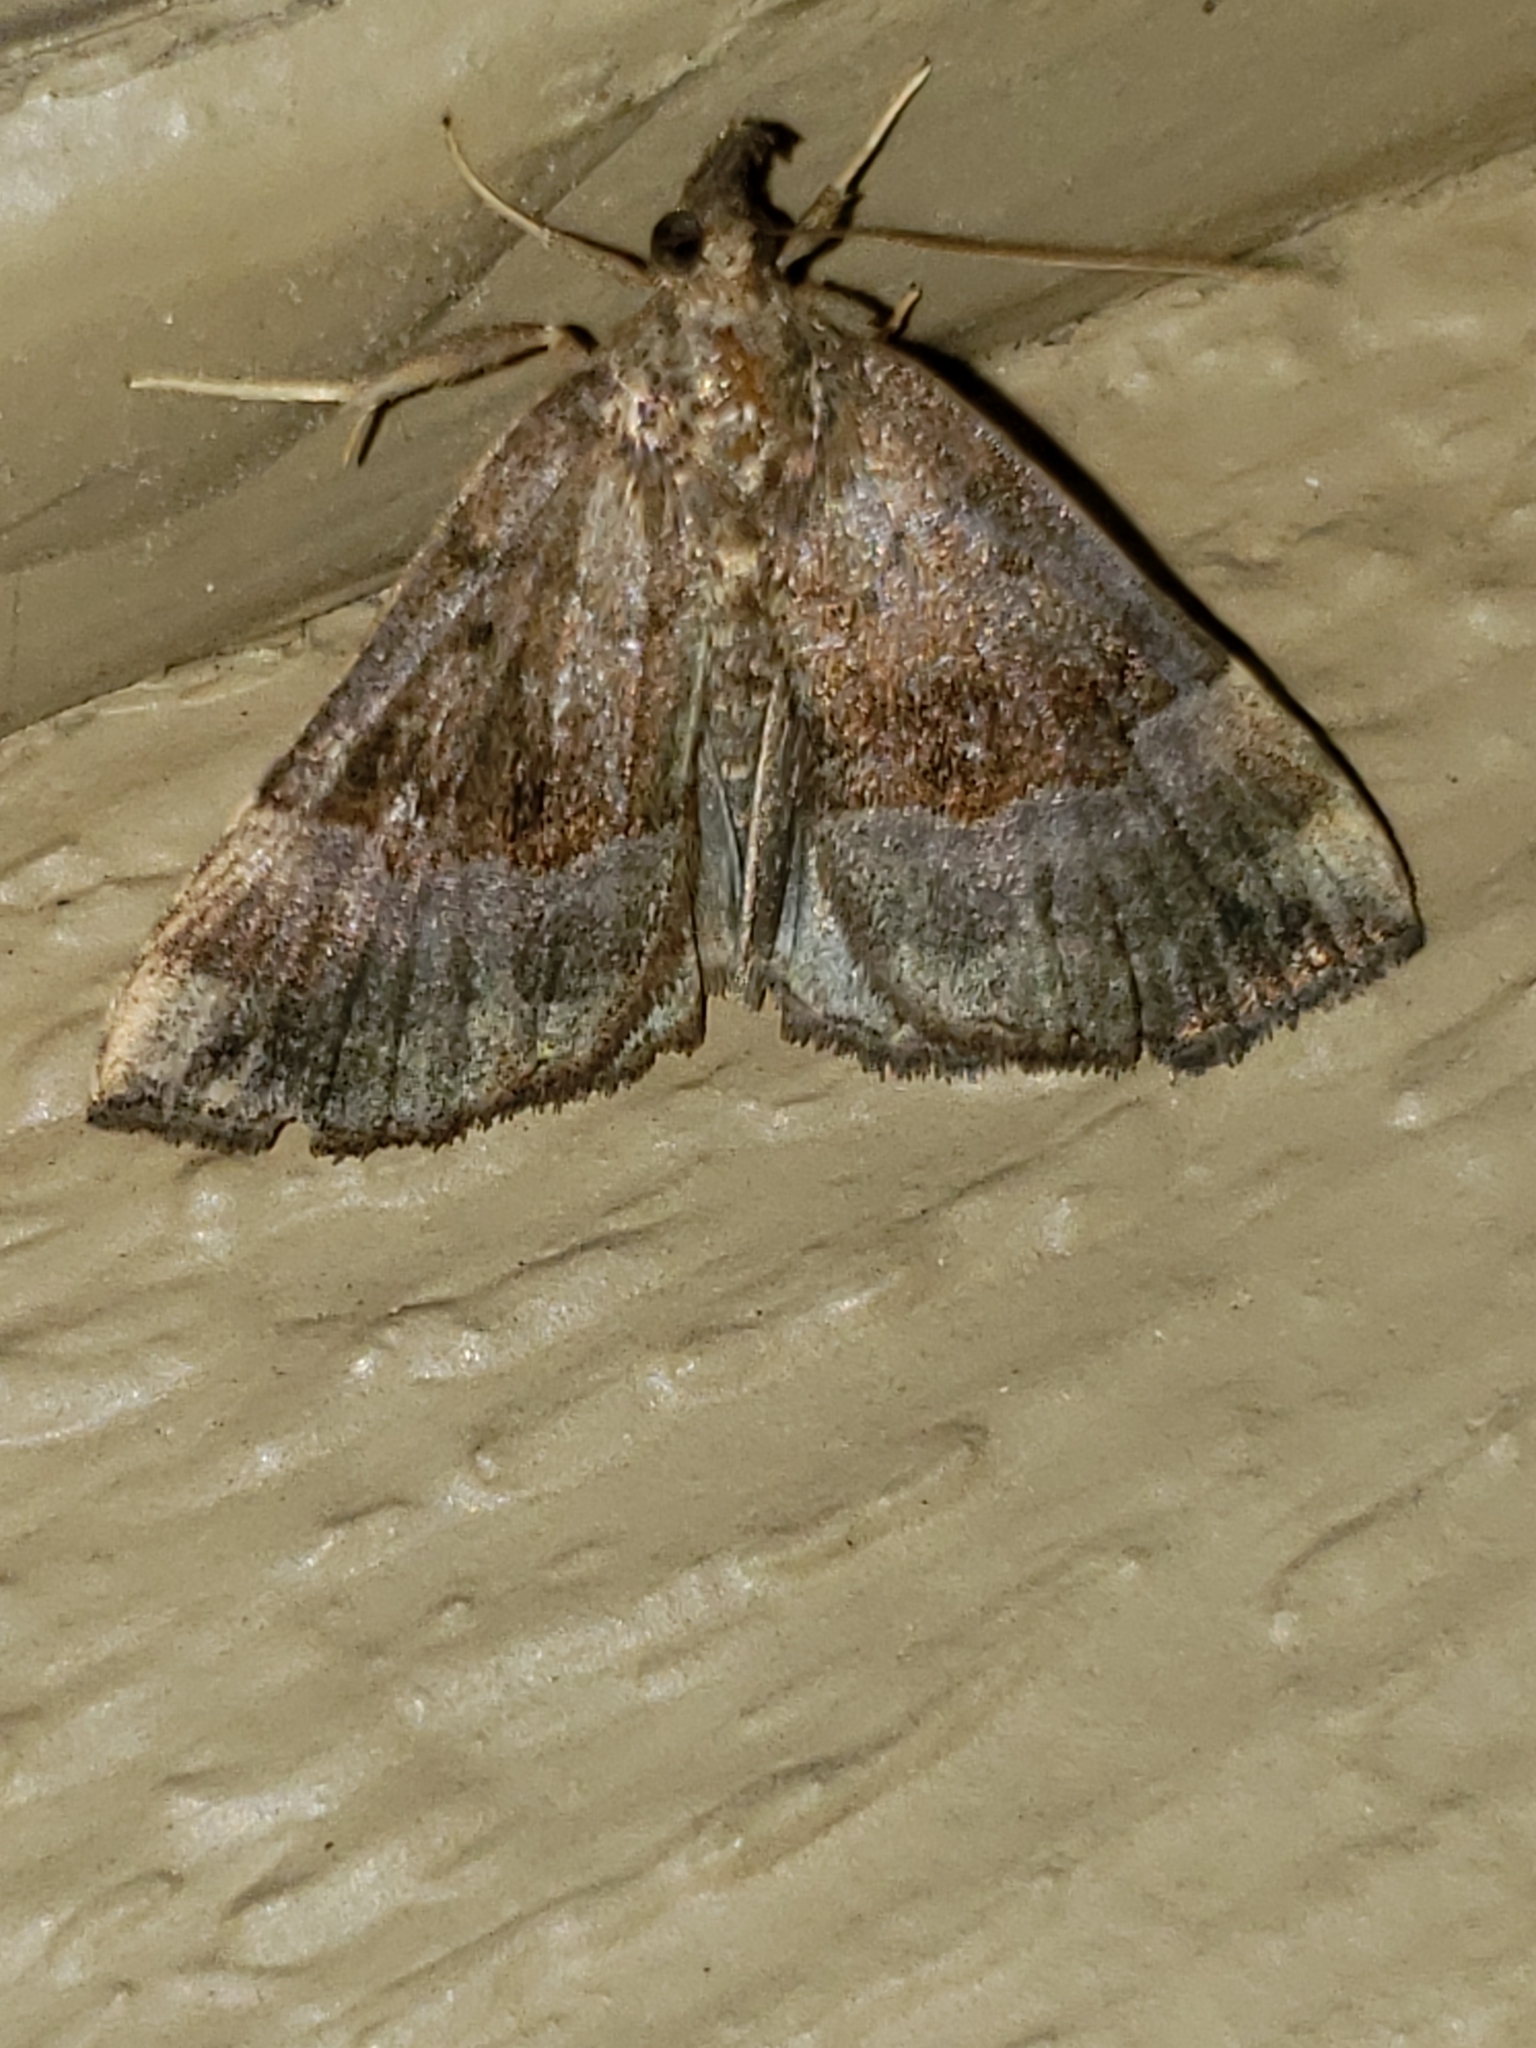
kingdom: Animalia
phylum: Arthropoda
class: Insecta
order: Lepidoptera
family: Erebidae
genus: Hypena
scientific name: Hypena madefactalis
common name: Gray-edged snout
